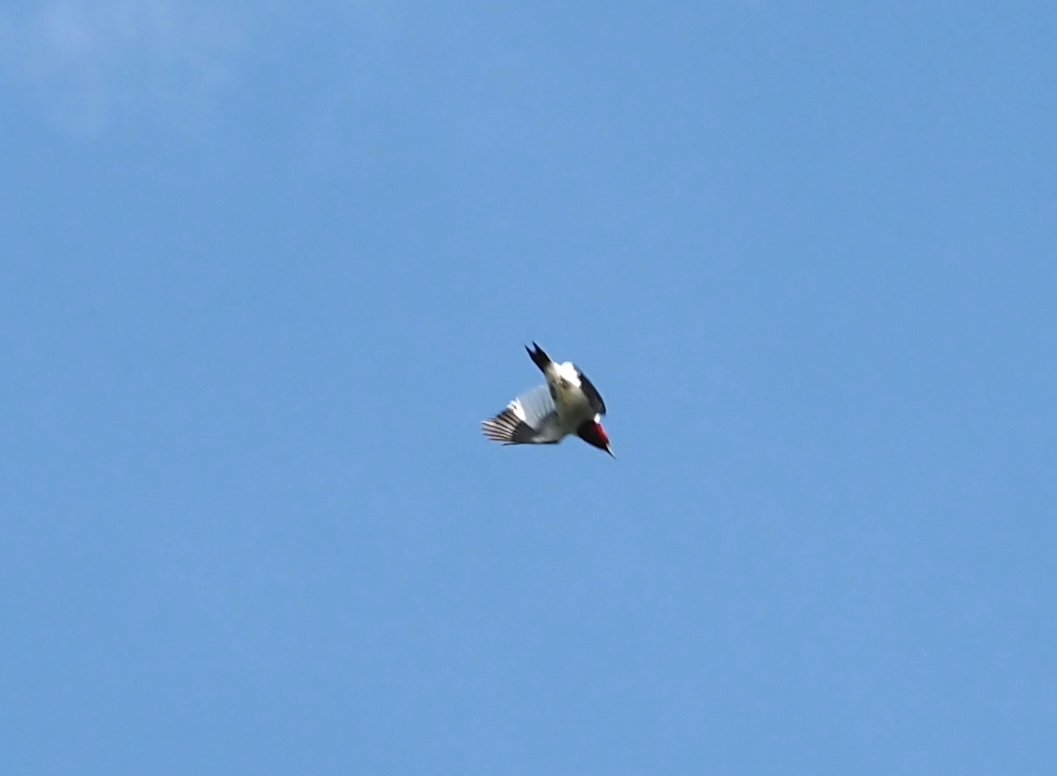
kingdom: Animalia
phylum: Chordata
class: Aves
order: Piciformes
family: Picidae
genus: Melanerpes
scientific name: Melanerpes erythrocephalus
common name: Red-headed woodpecker
